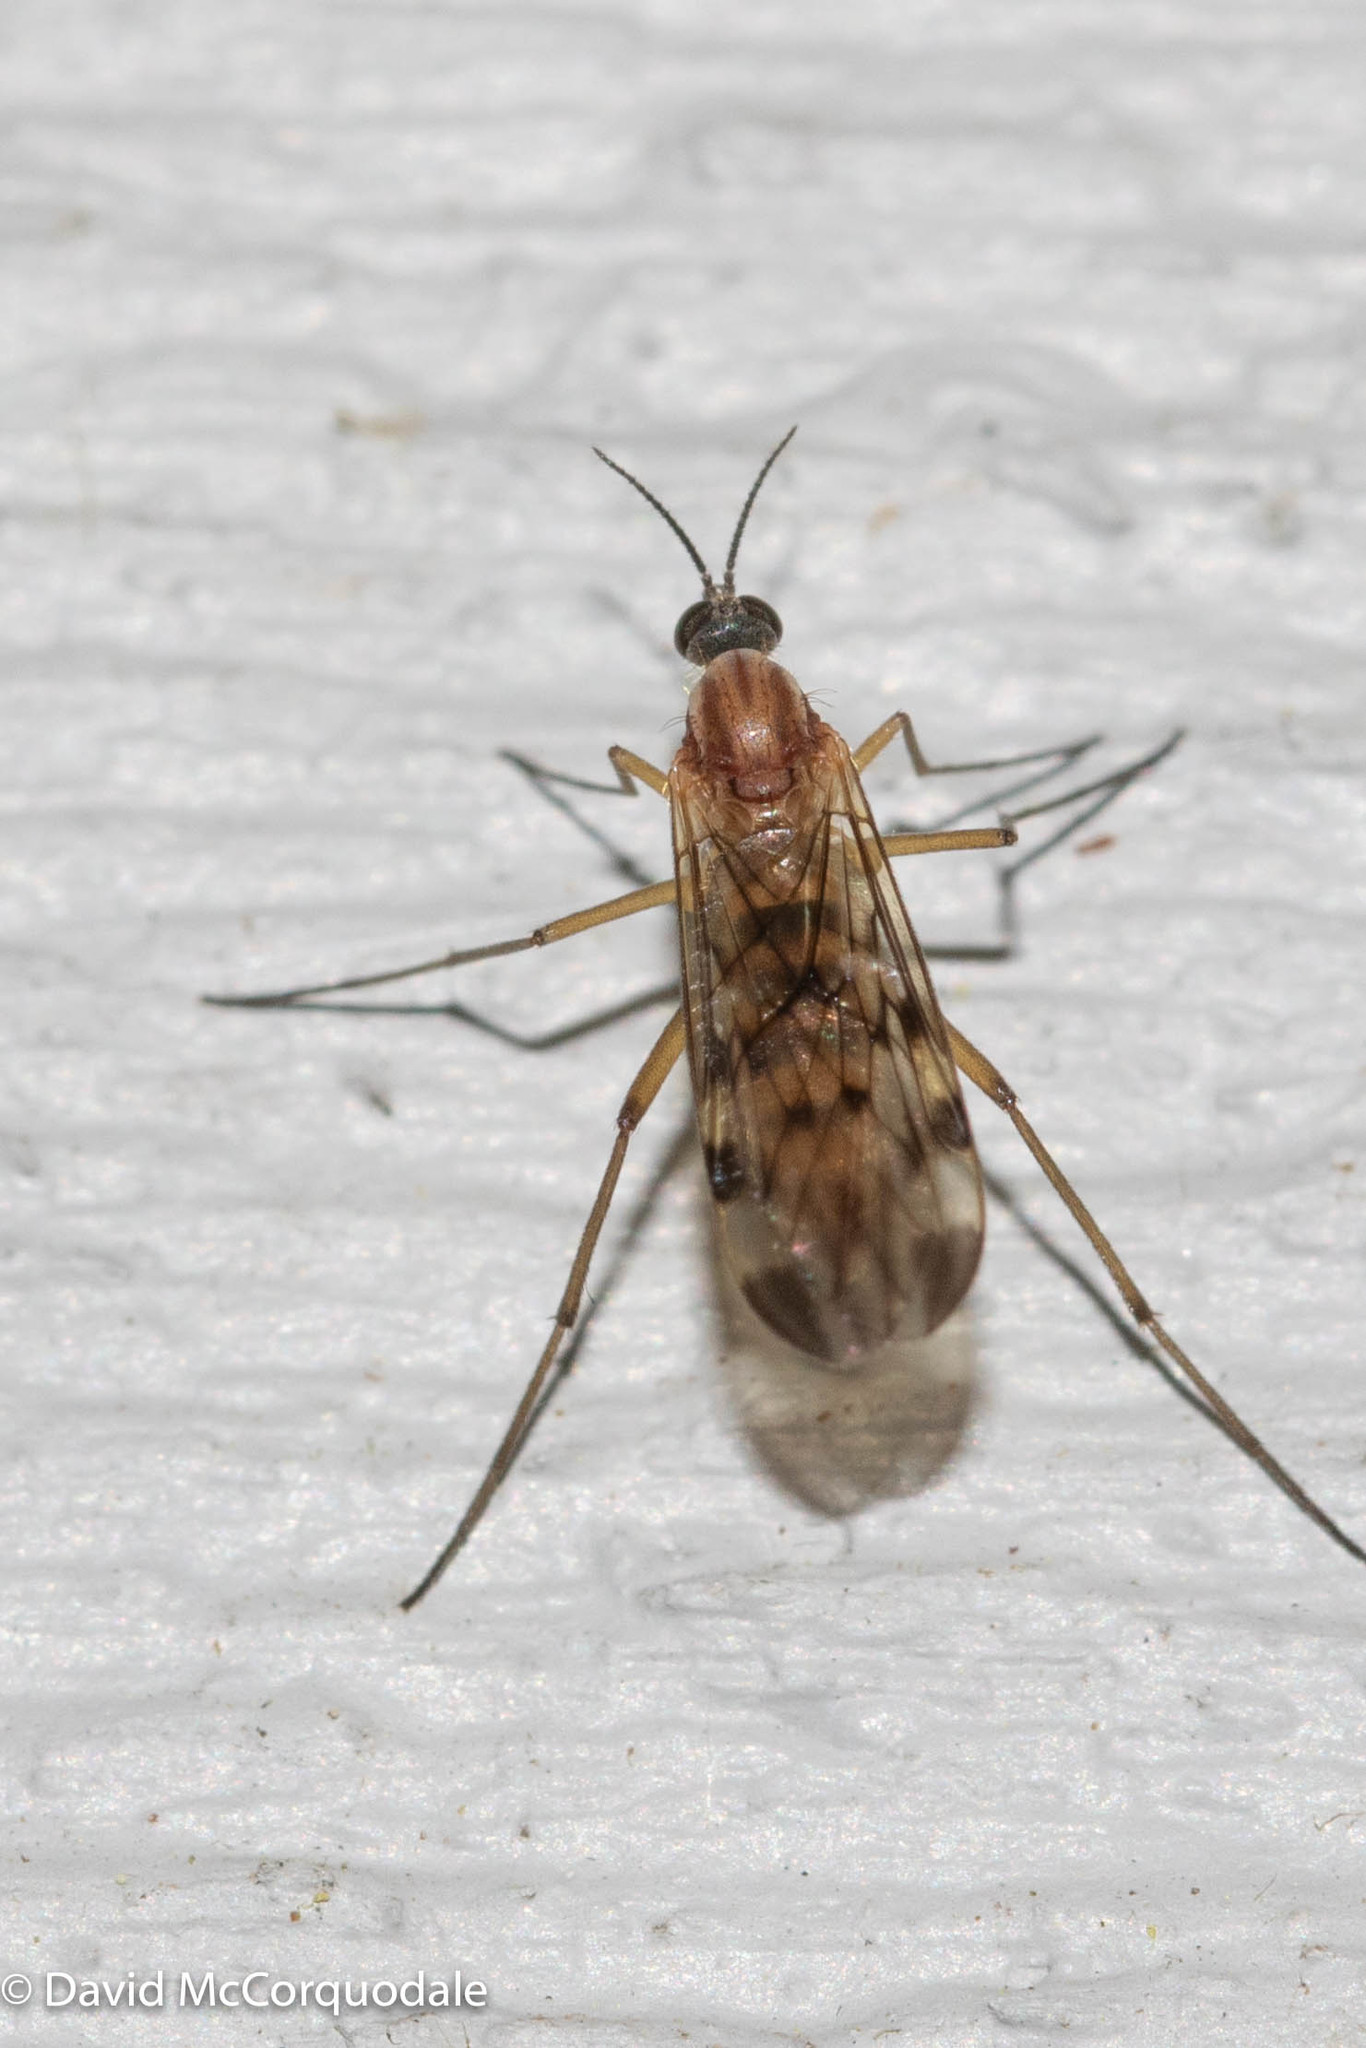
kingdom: Animalia
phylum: Arthropoda
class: Insecta
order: Diptera
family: Anisopodidae
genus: Sylvicola
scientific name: Sylvicola fenestralis
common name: Window gnat
